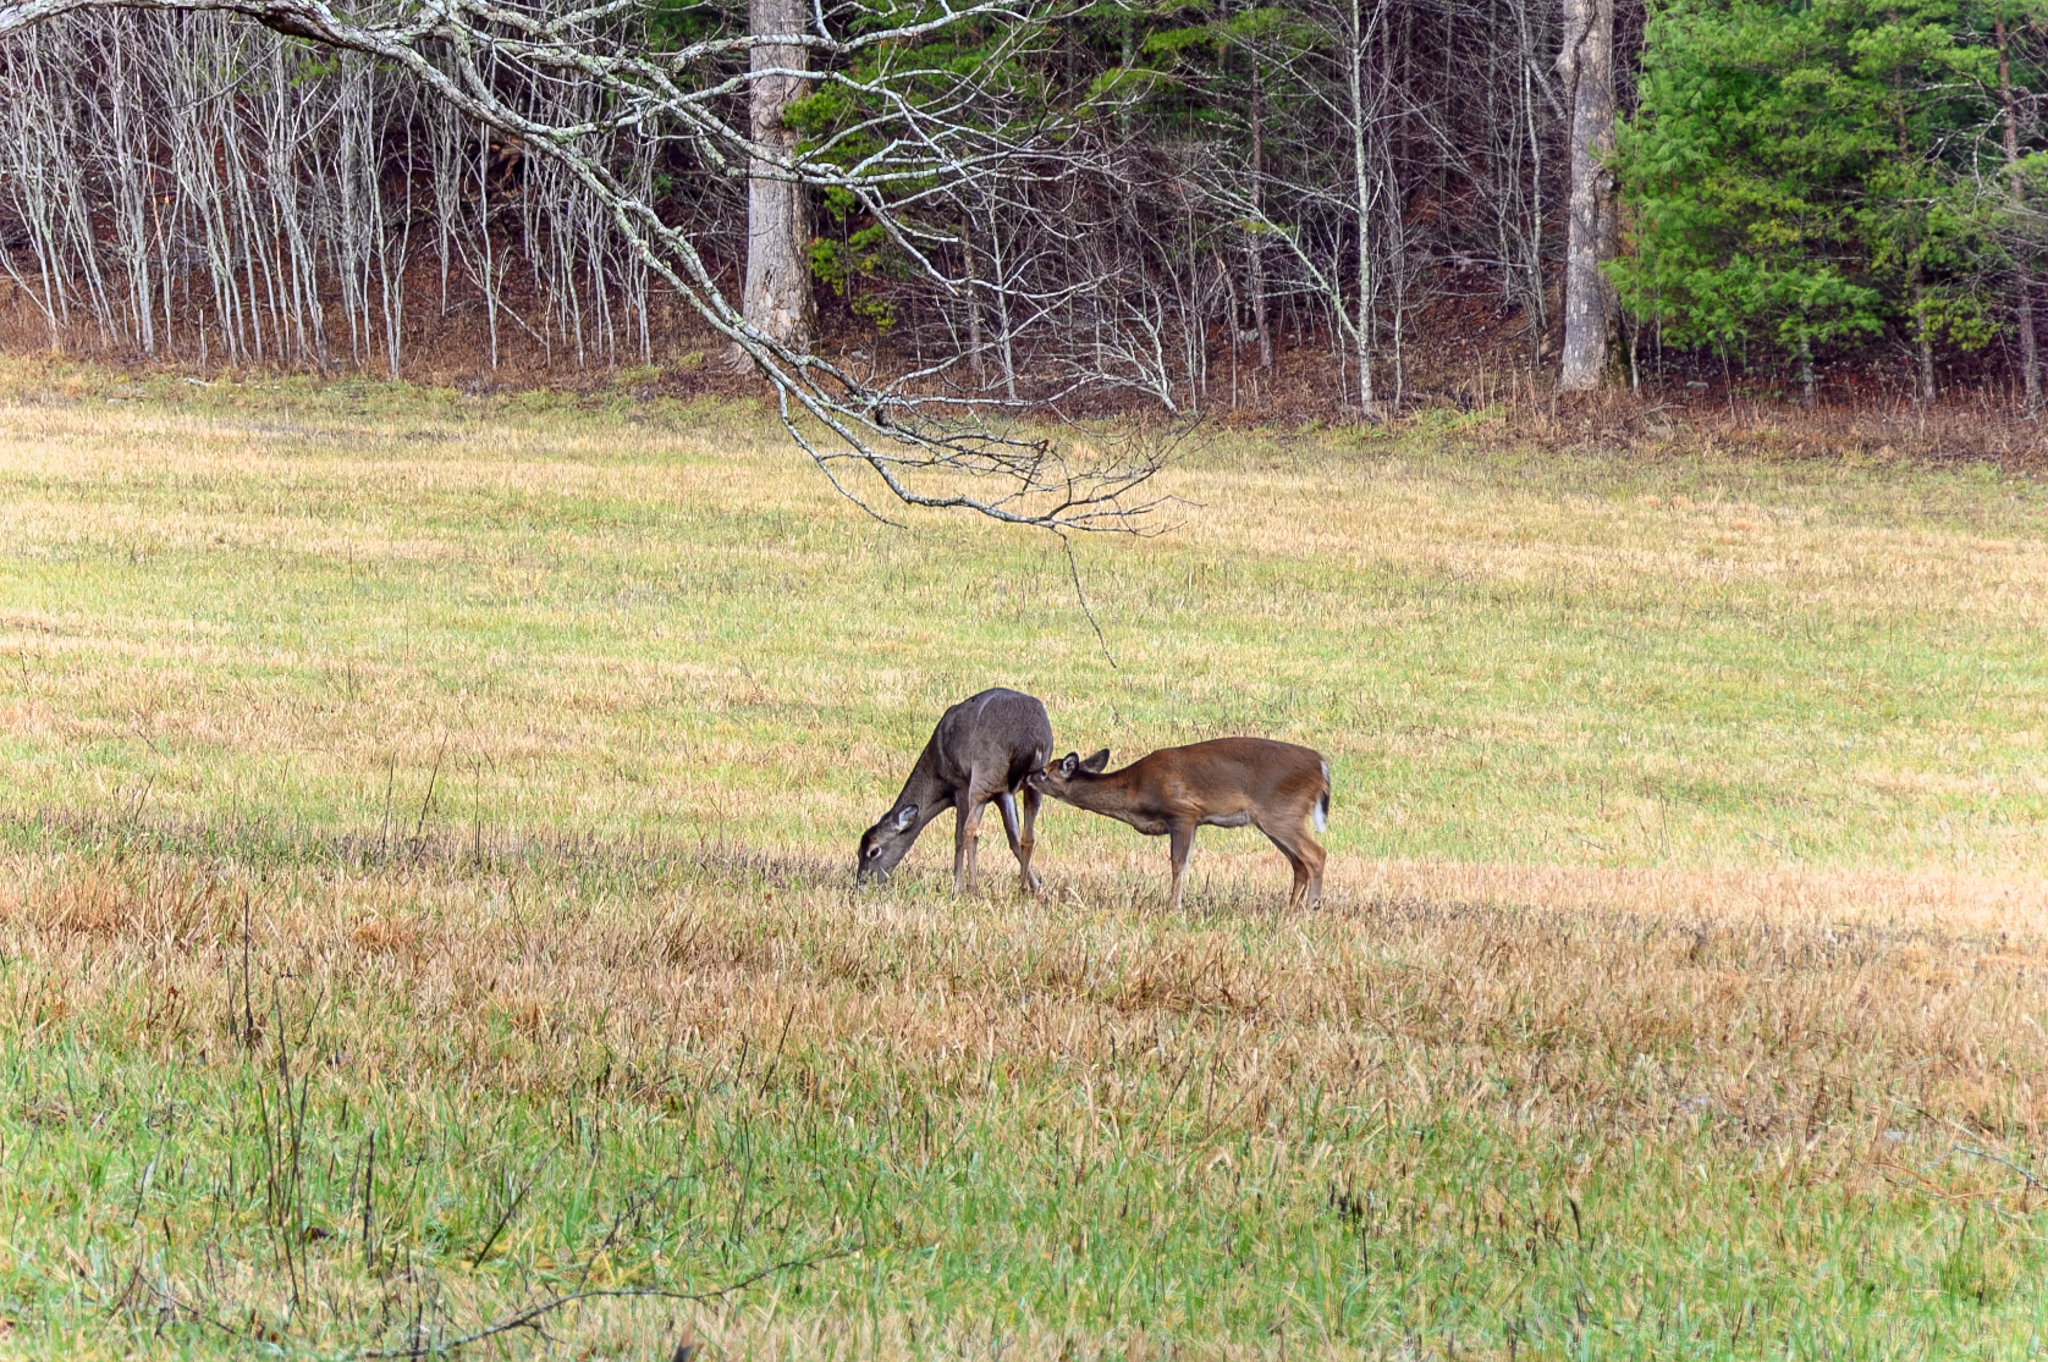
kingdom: Animalia
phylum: Chordata
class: Mammalia
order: Artiodactyla
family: Cervidae
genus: Odocoileus
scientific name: Odocoileus virginianus
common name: White-tailed deer
